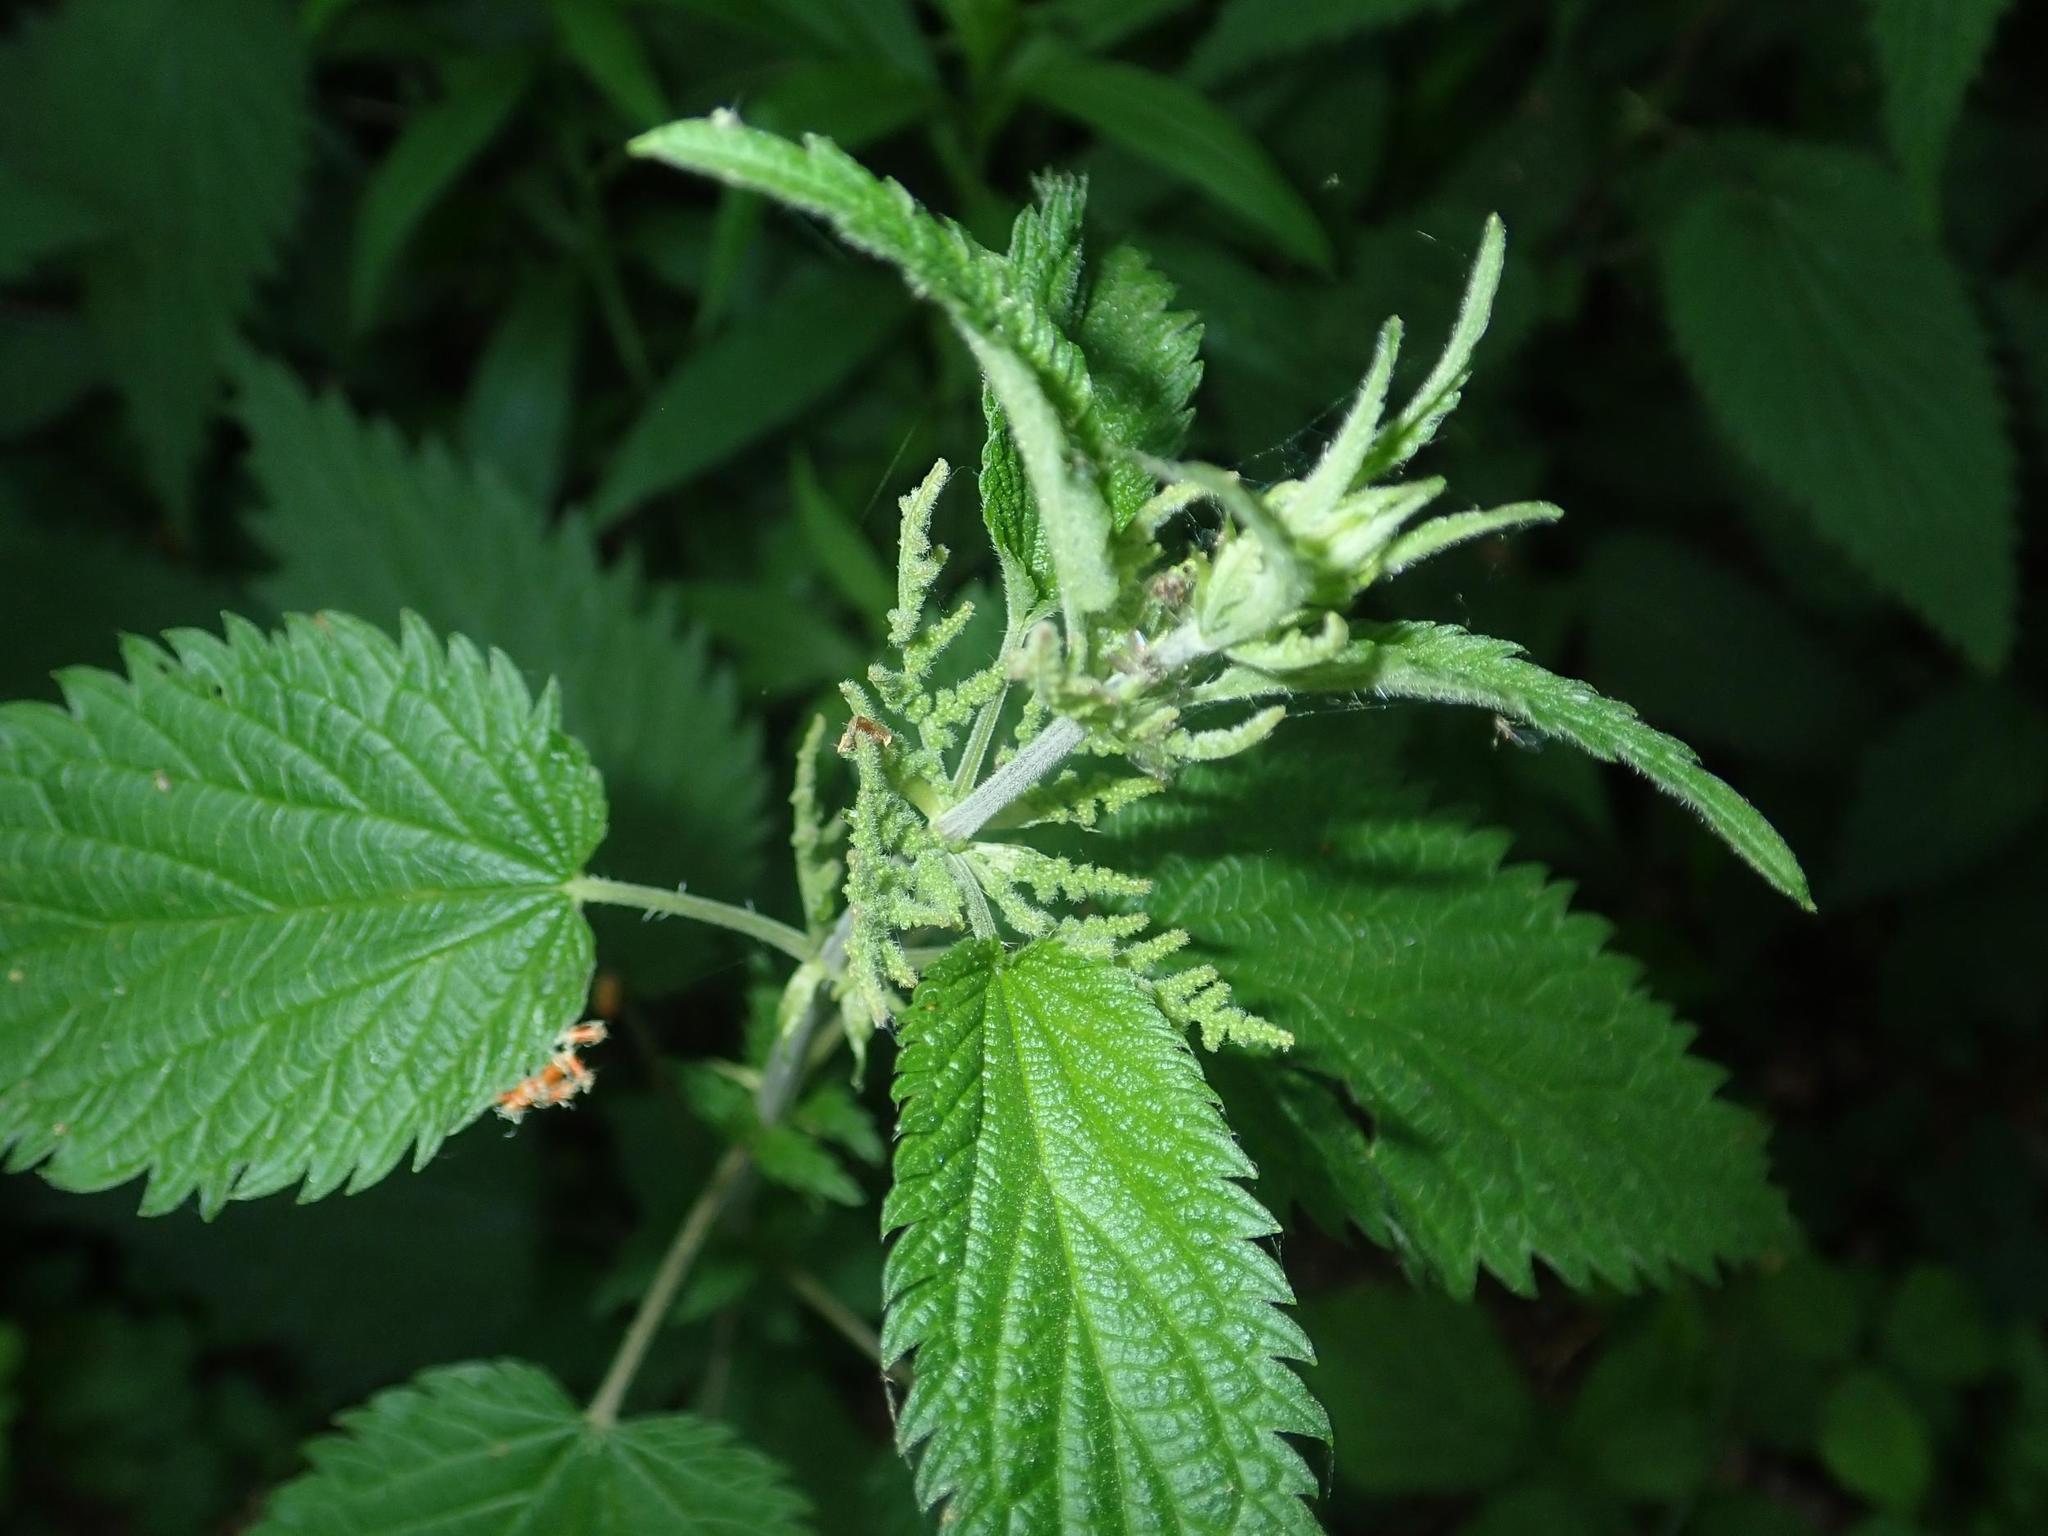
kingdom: Plantae
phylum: Tracheophyta
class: Magnoliopsida
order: Rosales
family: Urticaceae
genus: Urtica
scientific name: Urtica dioica
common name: Common nettle
